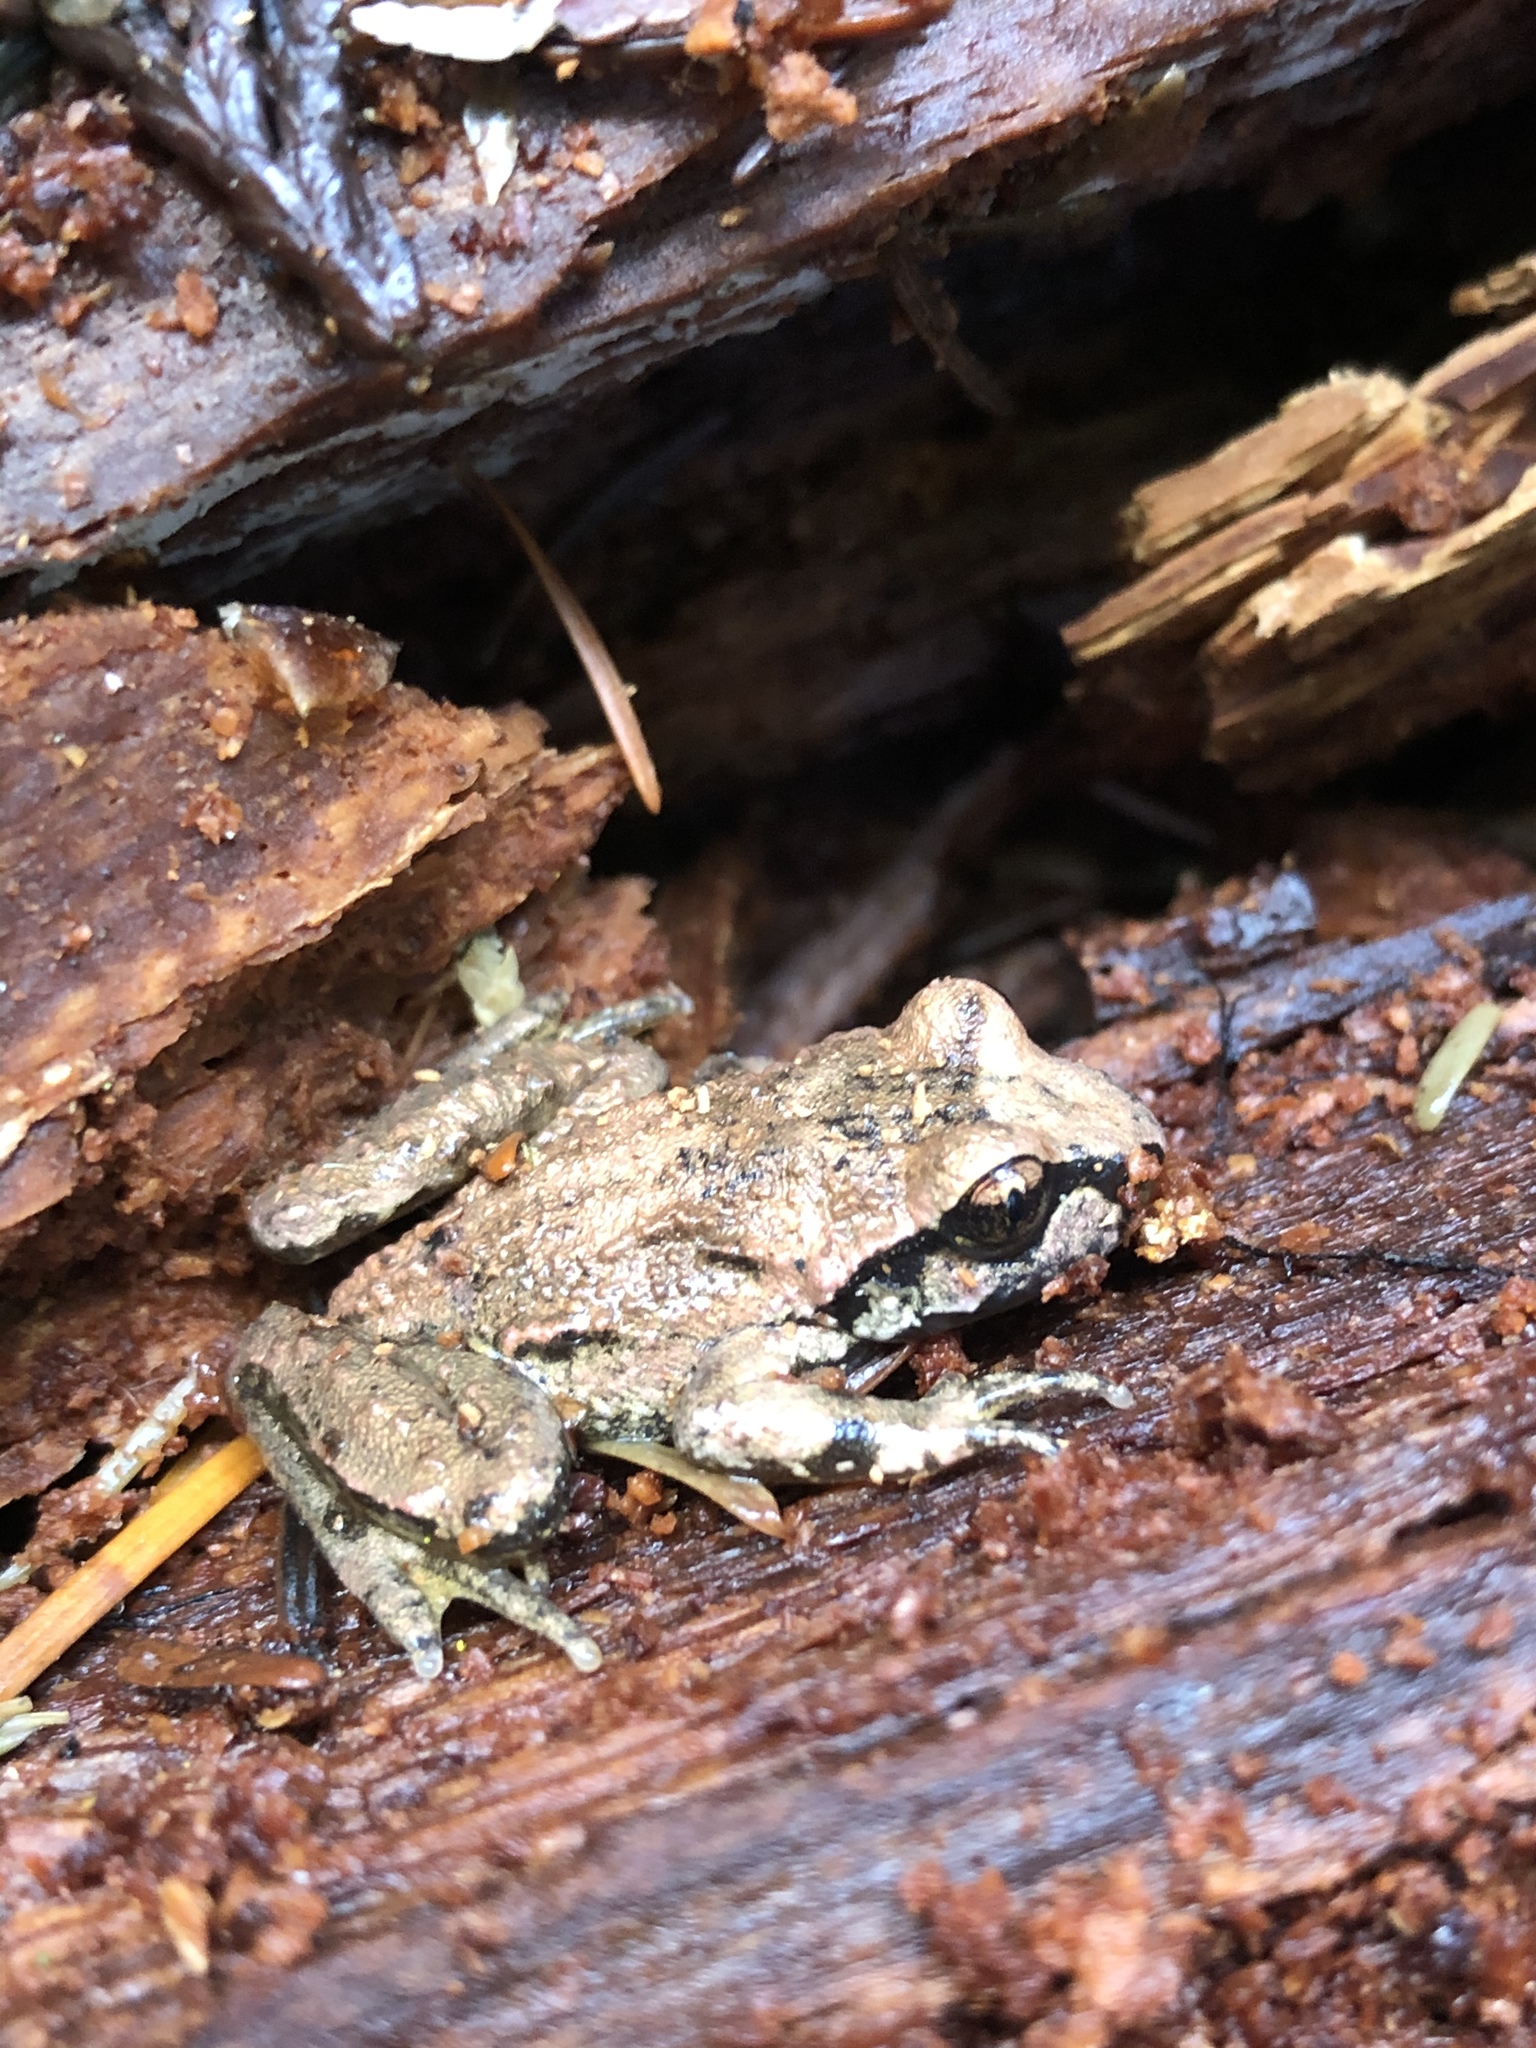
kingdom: Animalia
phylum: Chordata
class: Amphibia
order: Anura
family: Ascaphidae
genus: Ascaphus
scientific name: Ascaphus truei
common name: Tailed frog
